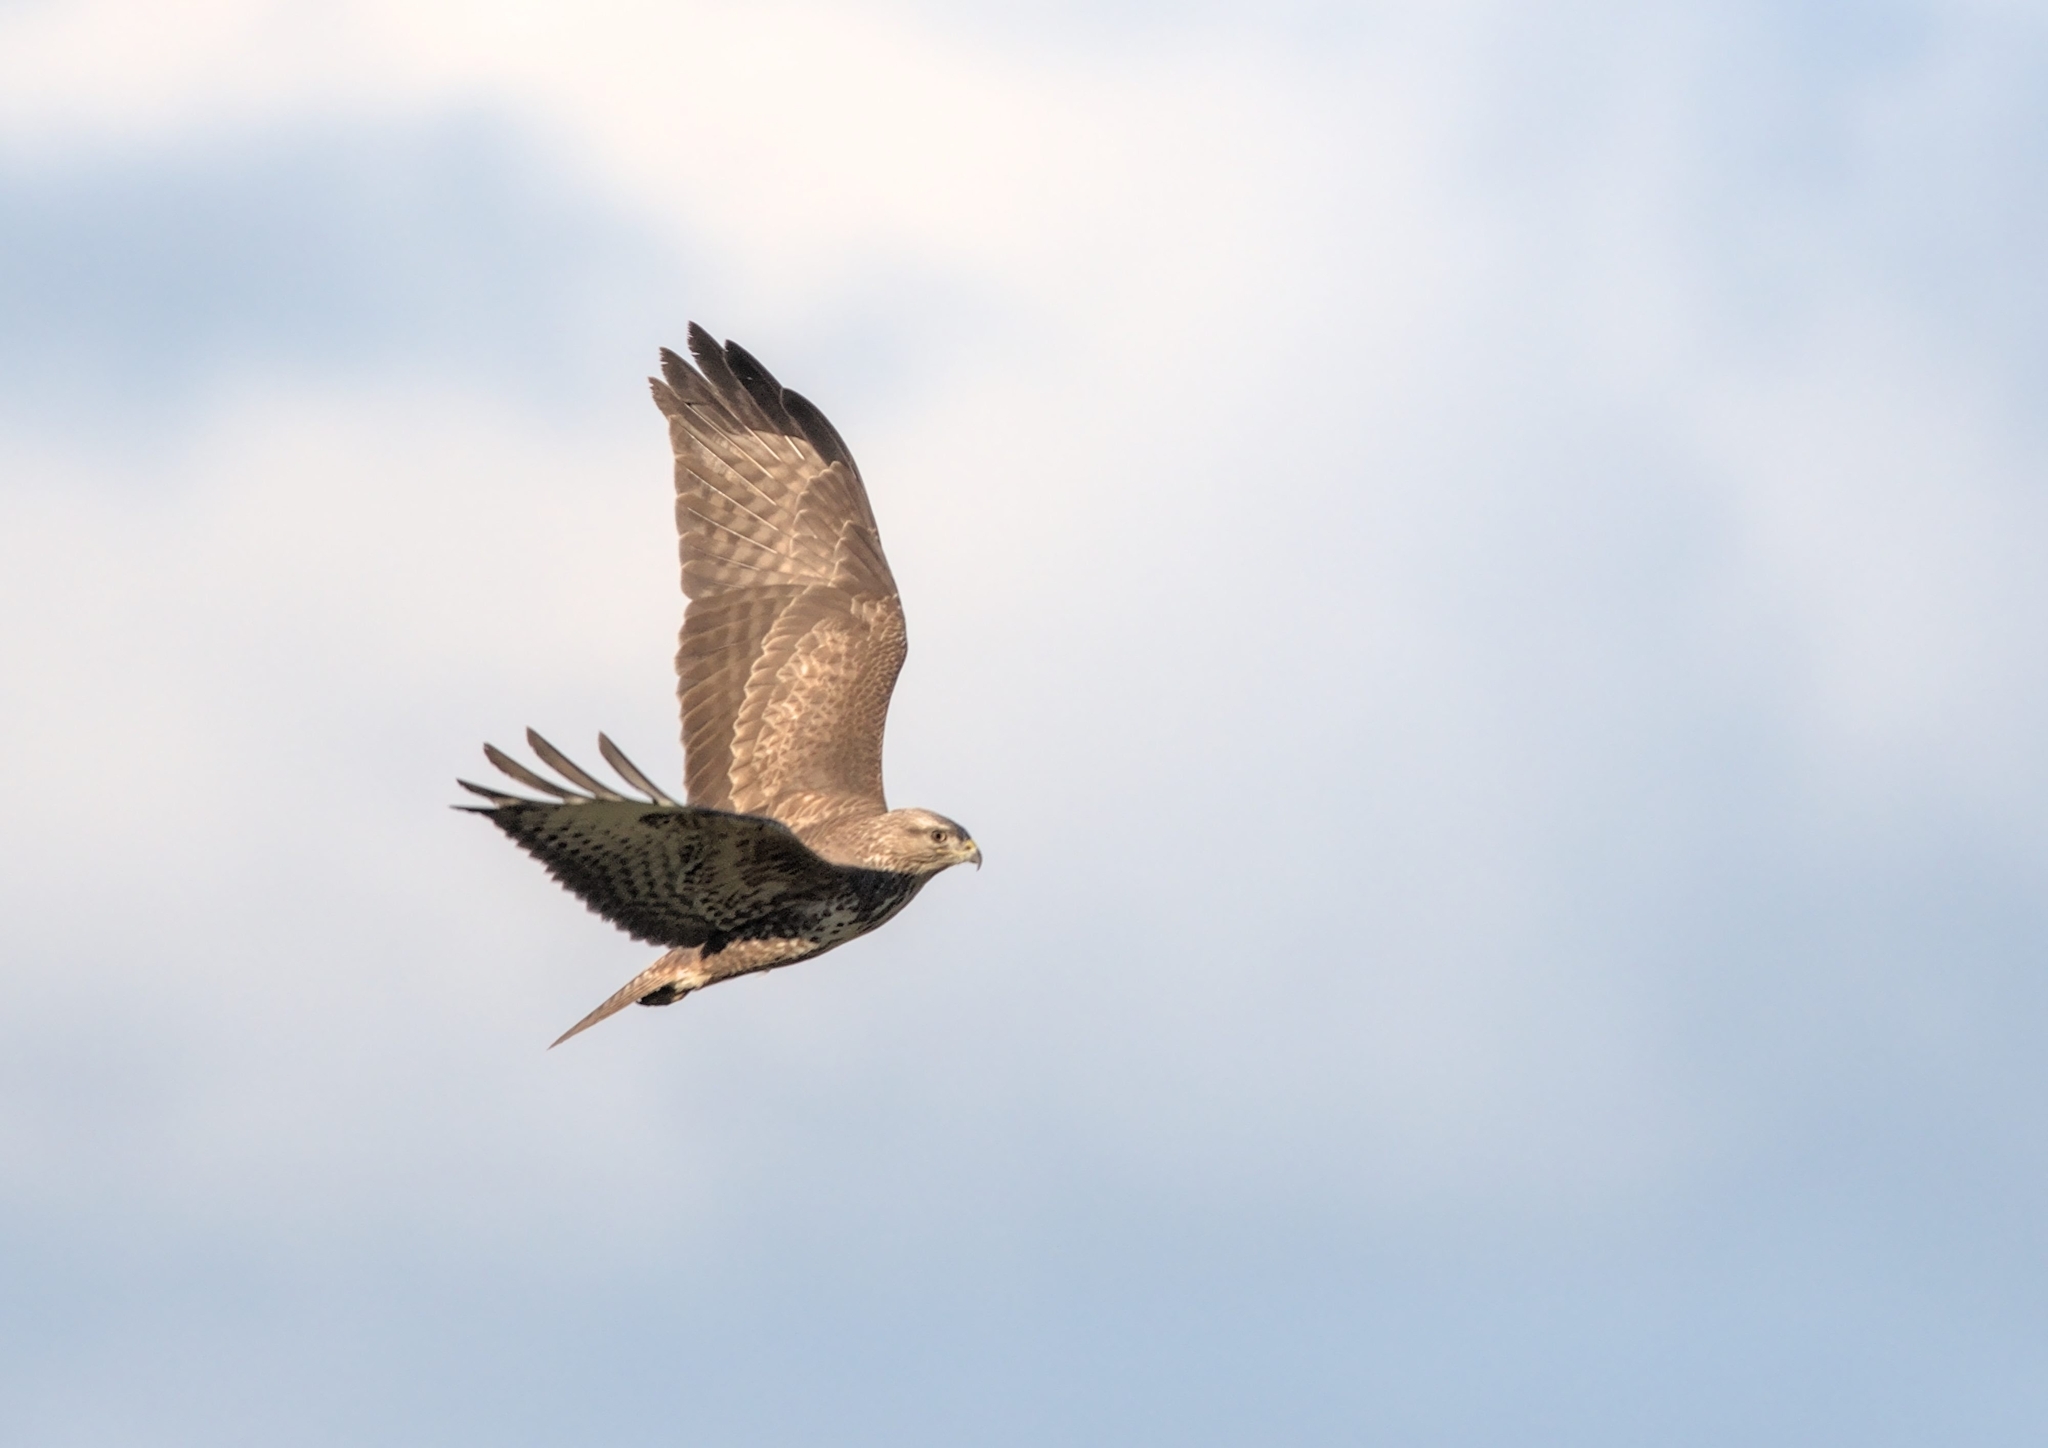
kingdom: Animalia
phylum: Chordata
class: Aves
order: Accipitriformes
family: Accipitridae
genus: Buteo
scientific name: Buteo buteo
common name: Common buzzard
